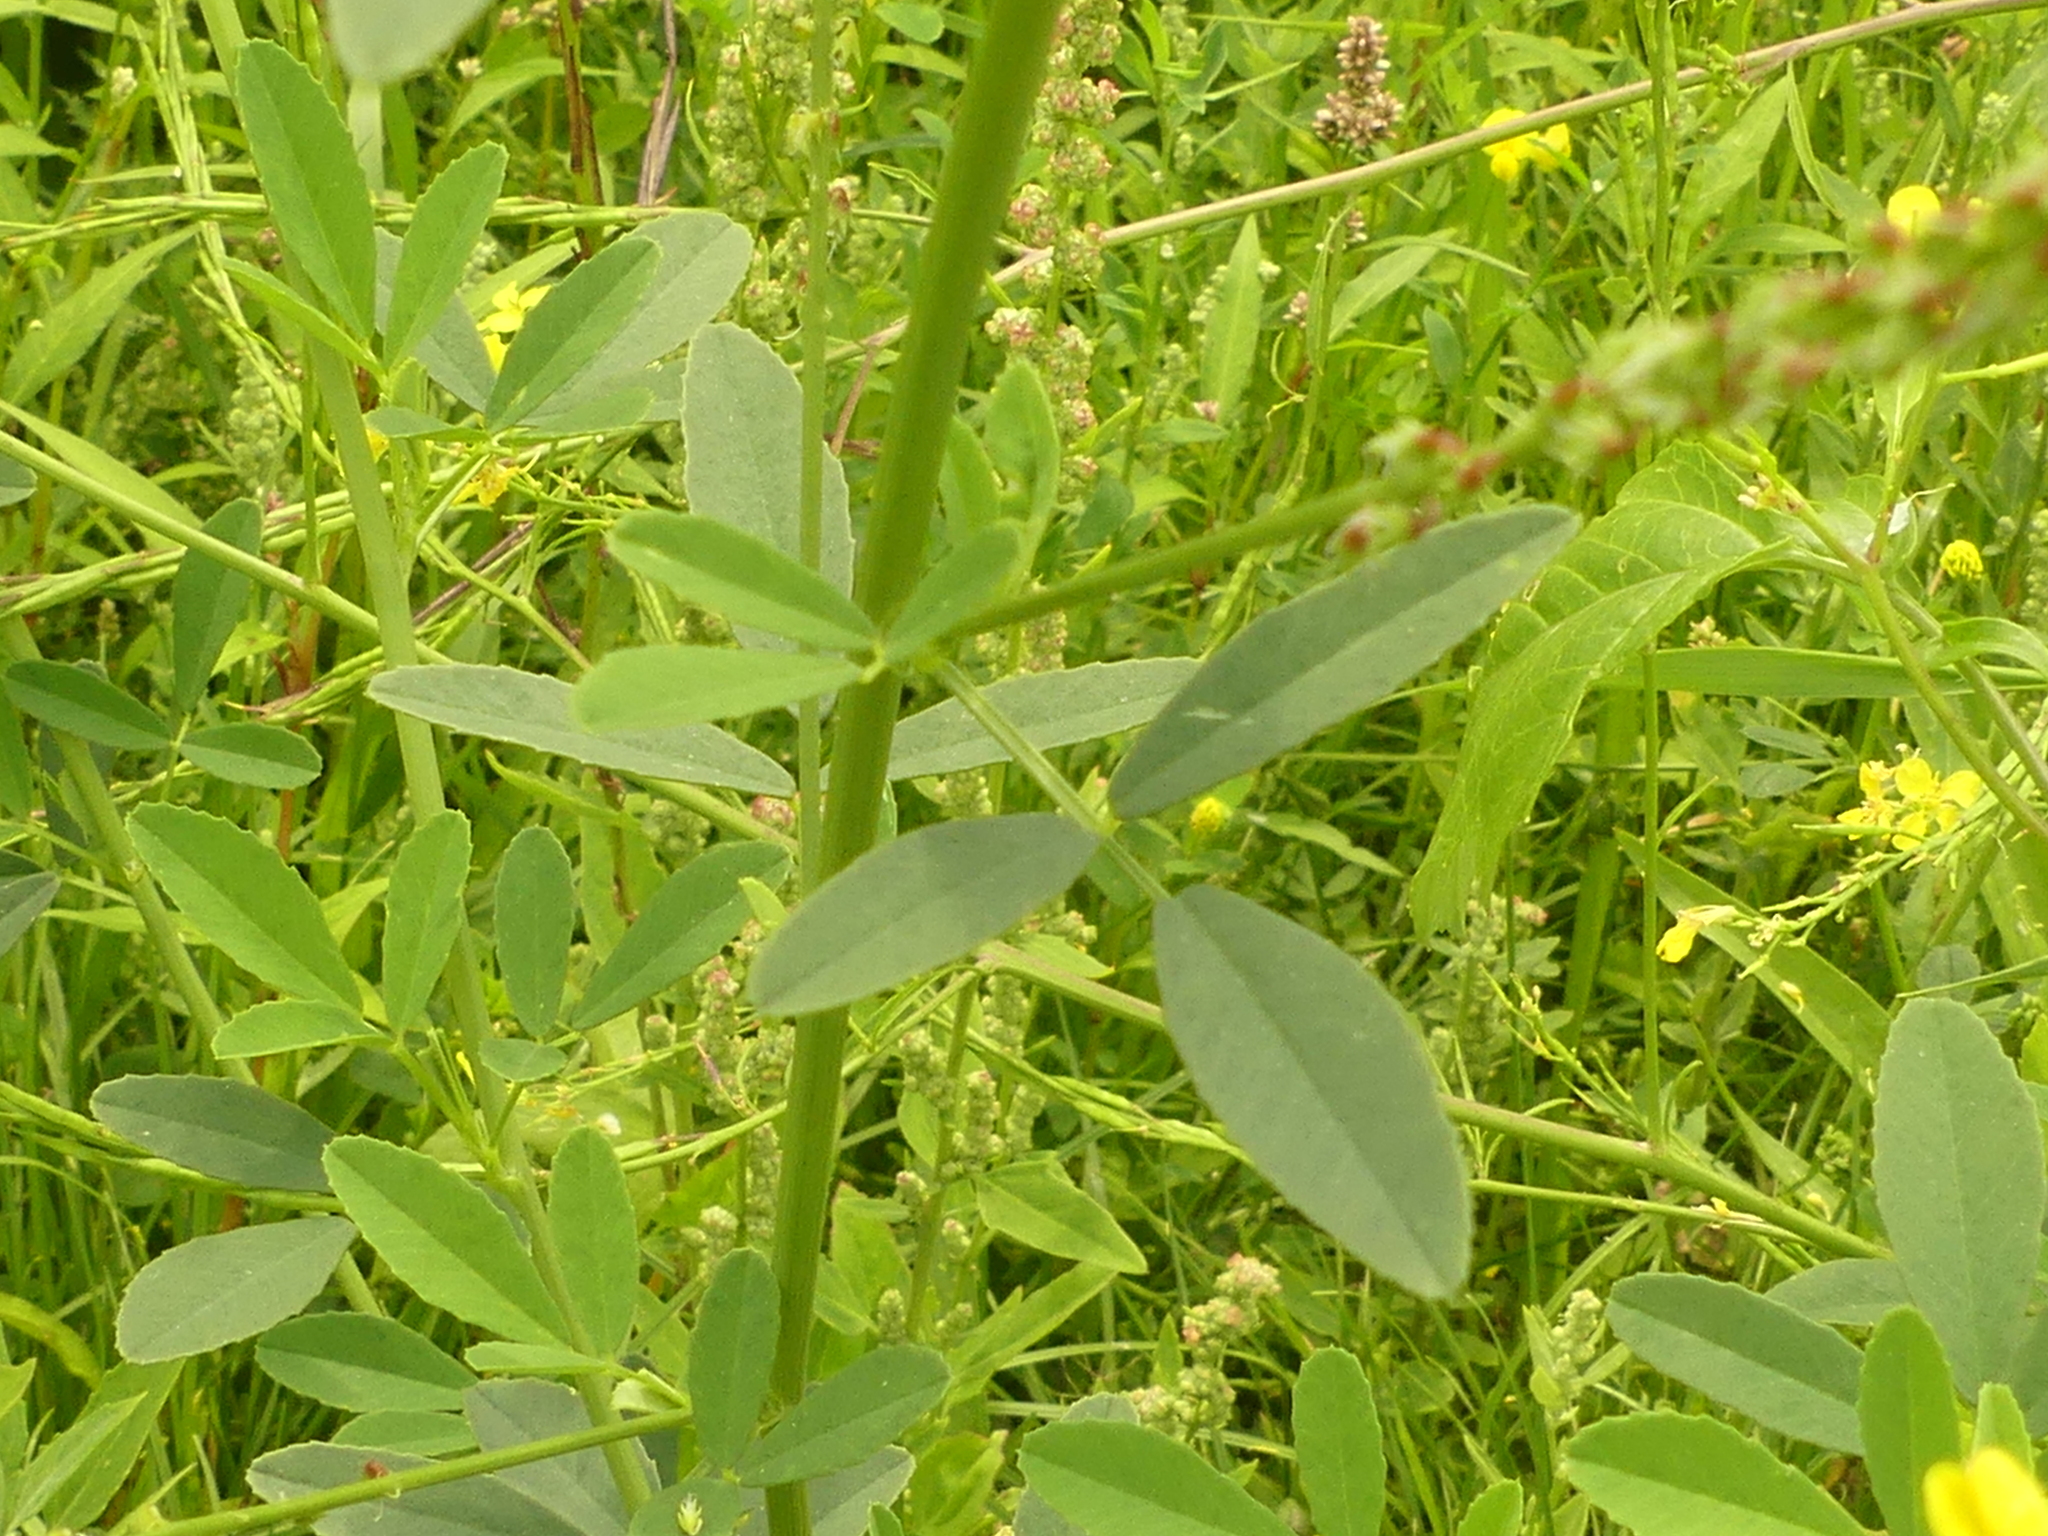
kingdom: Plantae
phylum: Tracheophyta
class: Magnoliopsida
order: Fabales
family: Fabaceae
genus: Melilotus
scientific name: Melilotus albus
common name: White melilot
